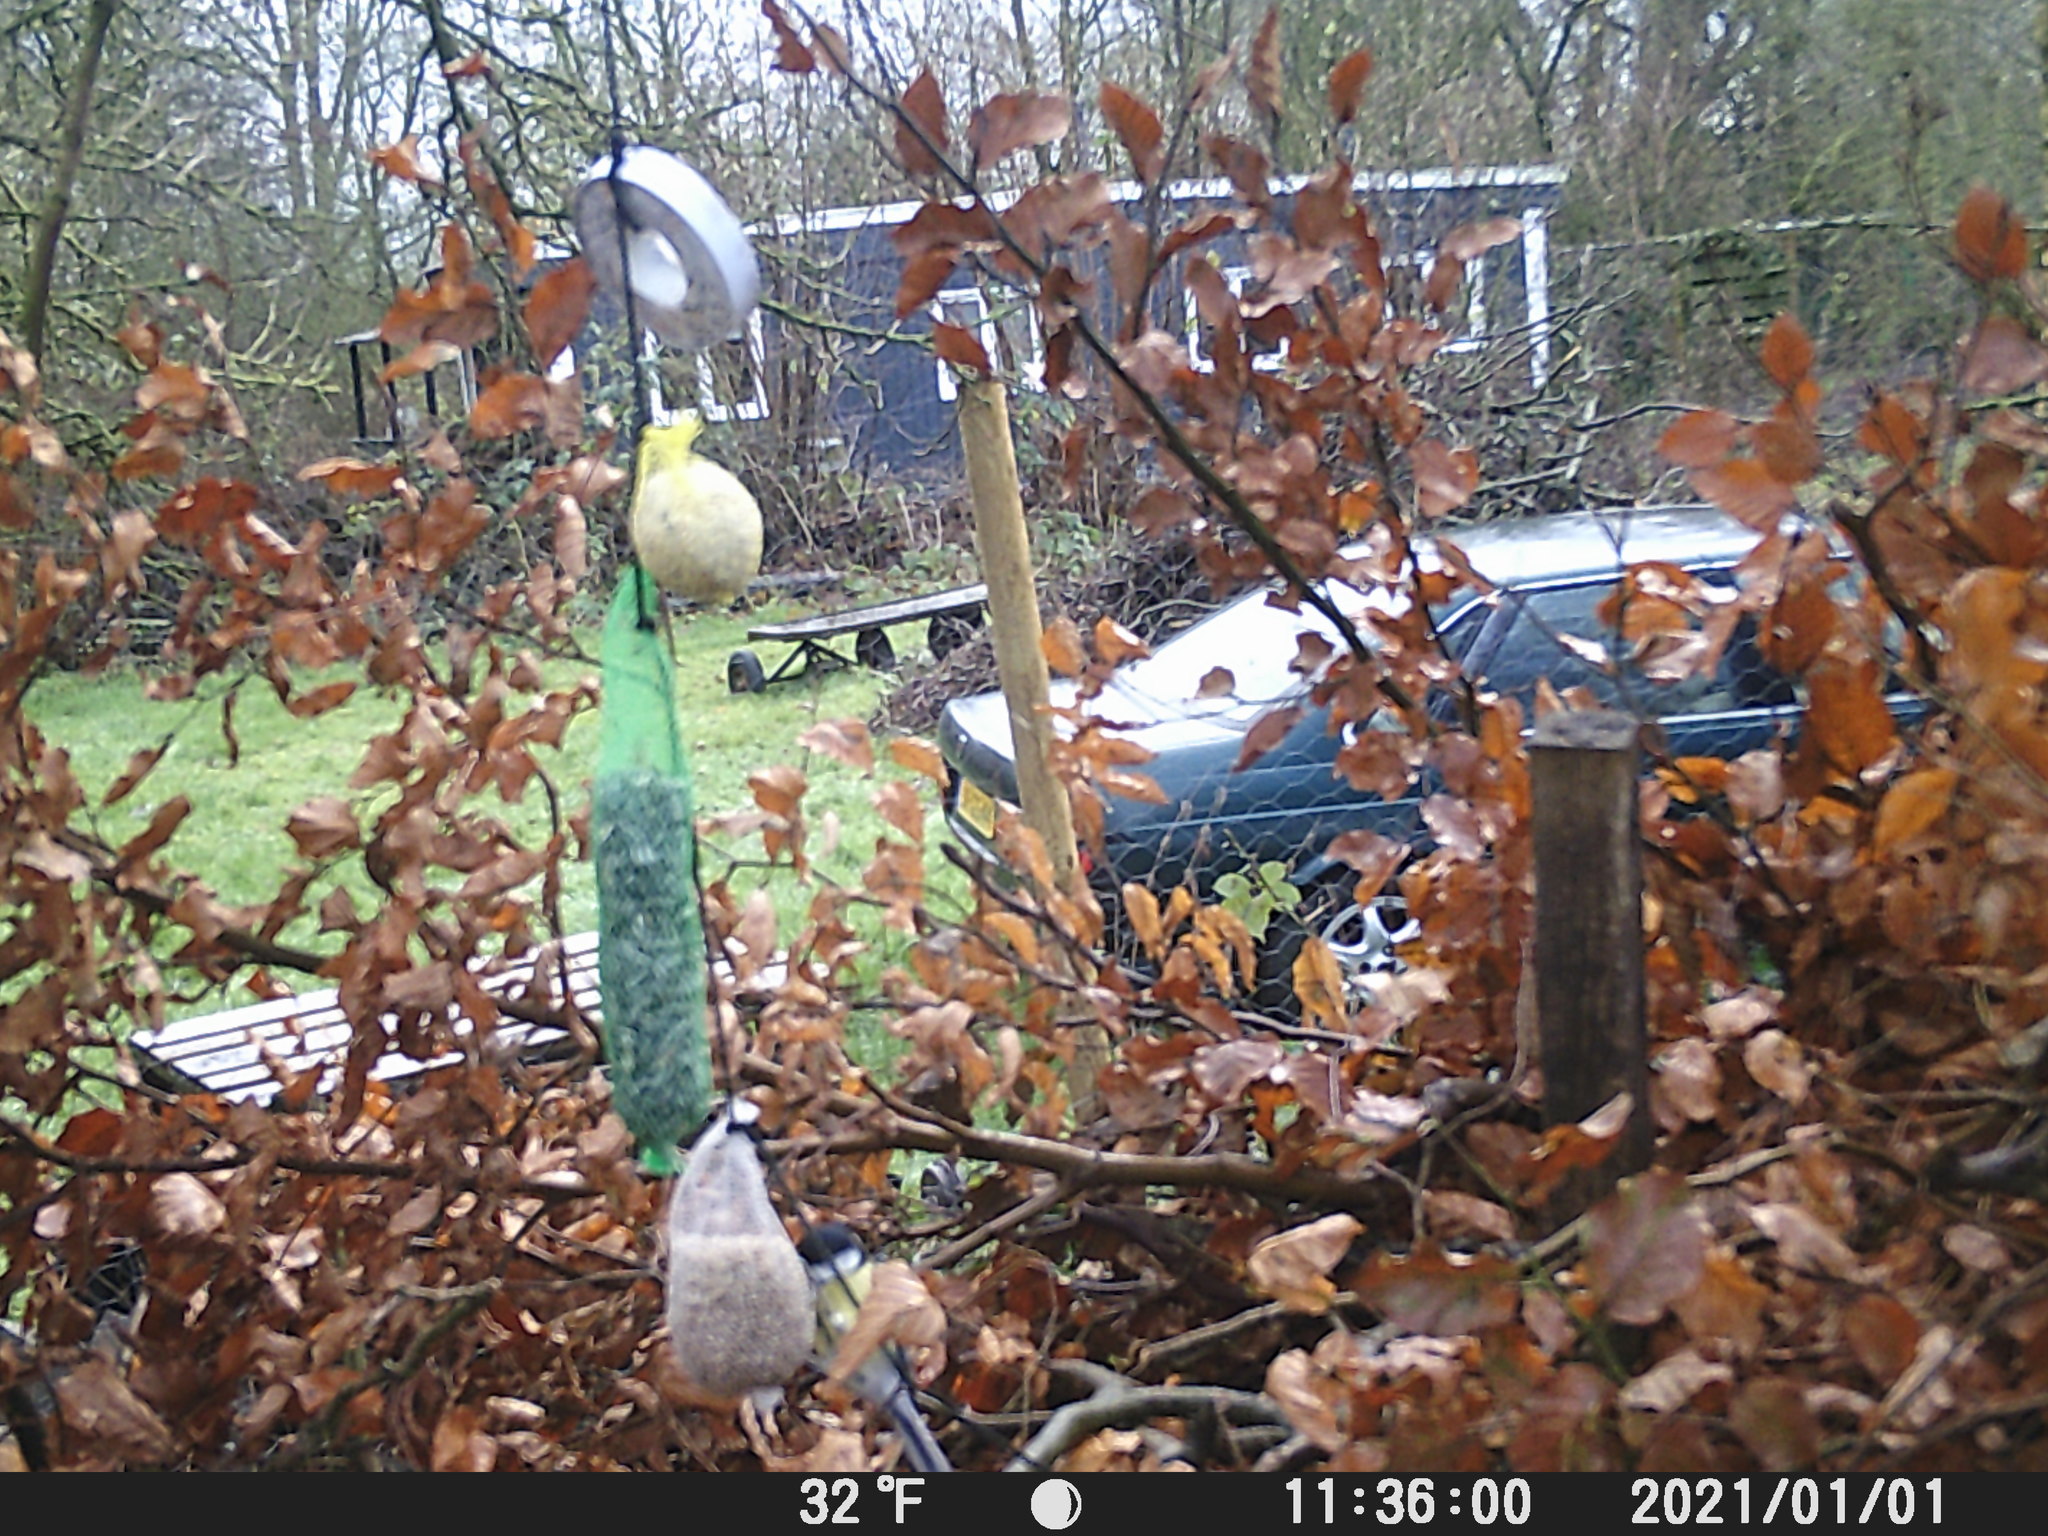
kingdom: Animalia
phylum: Chordata
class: Aves
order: Passeriformes
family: Paridae
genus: Parus
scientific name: Parus major
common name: Great tit
